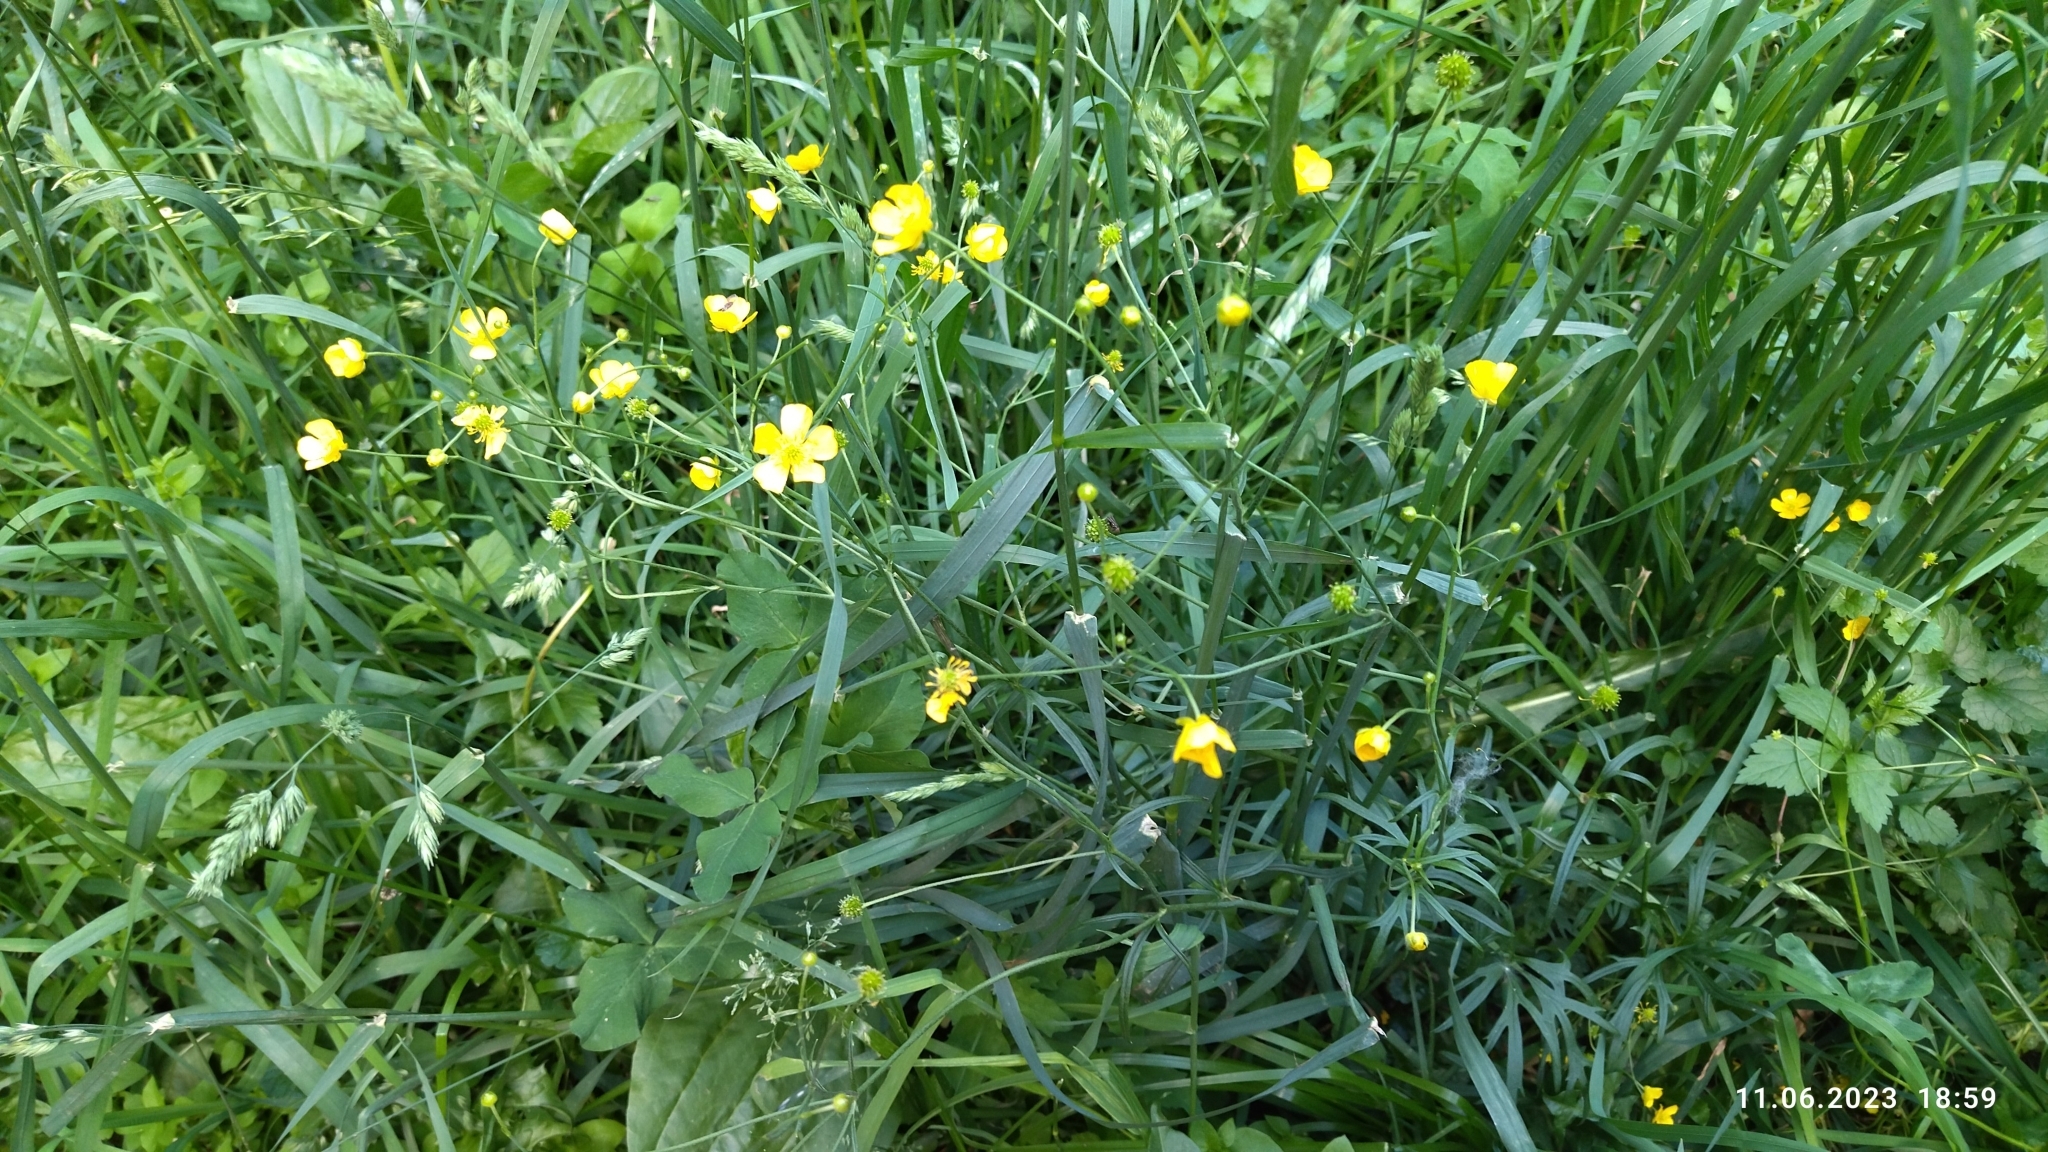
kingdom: Plantae
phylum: Tracheophyta
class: Magnoliopsida
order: Ranunculales
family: Ranunculaceae
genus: Ranunculus
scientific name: Ranunculus acris
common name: Meadow buttercup
